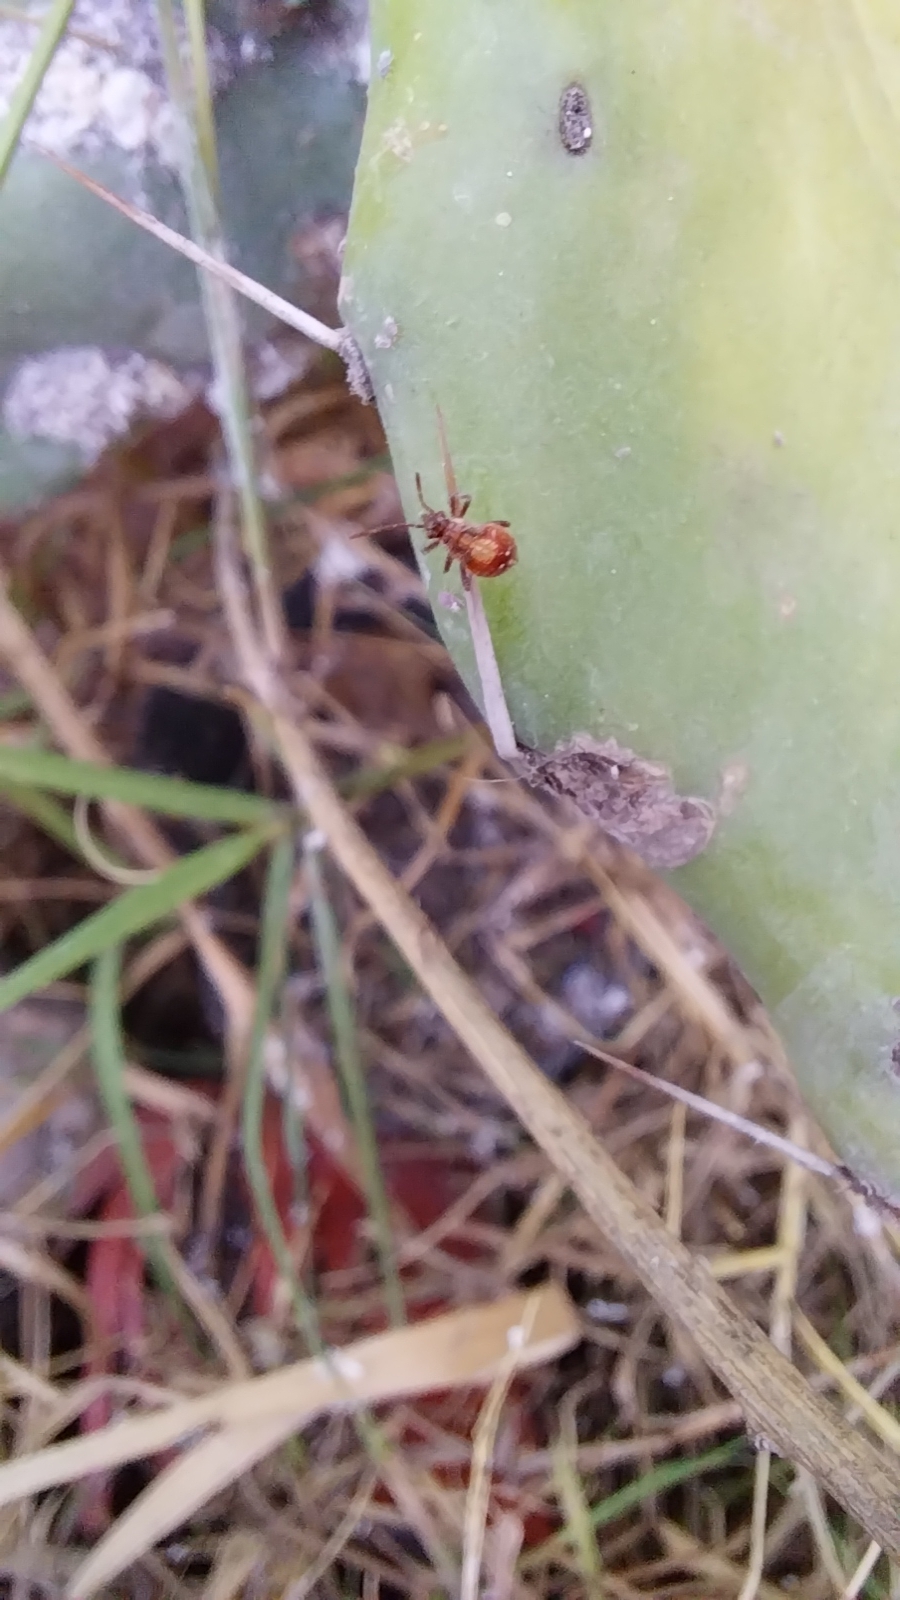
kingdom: Animalia
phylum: Arthropoda
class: Insecta
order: Hemiptera
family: Rhopalidae
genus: Liorhyssus
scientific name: Liorhyssus hyalinus
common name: Scentless plant bug
